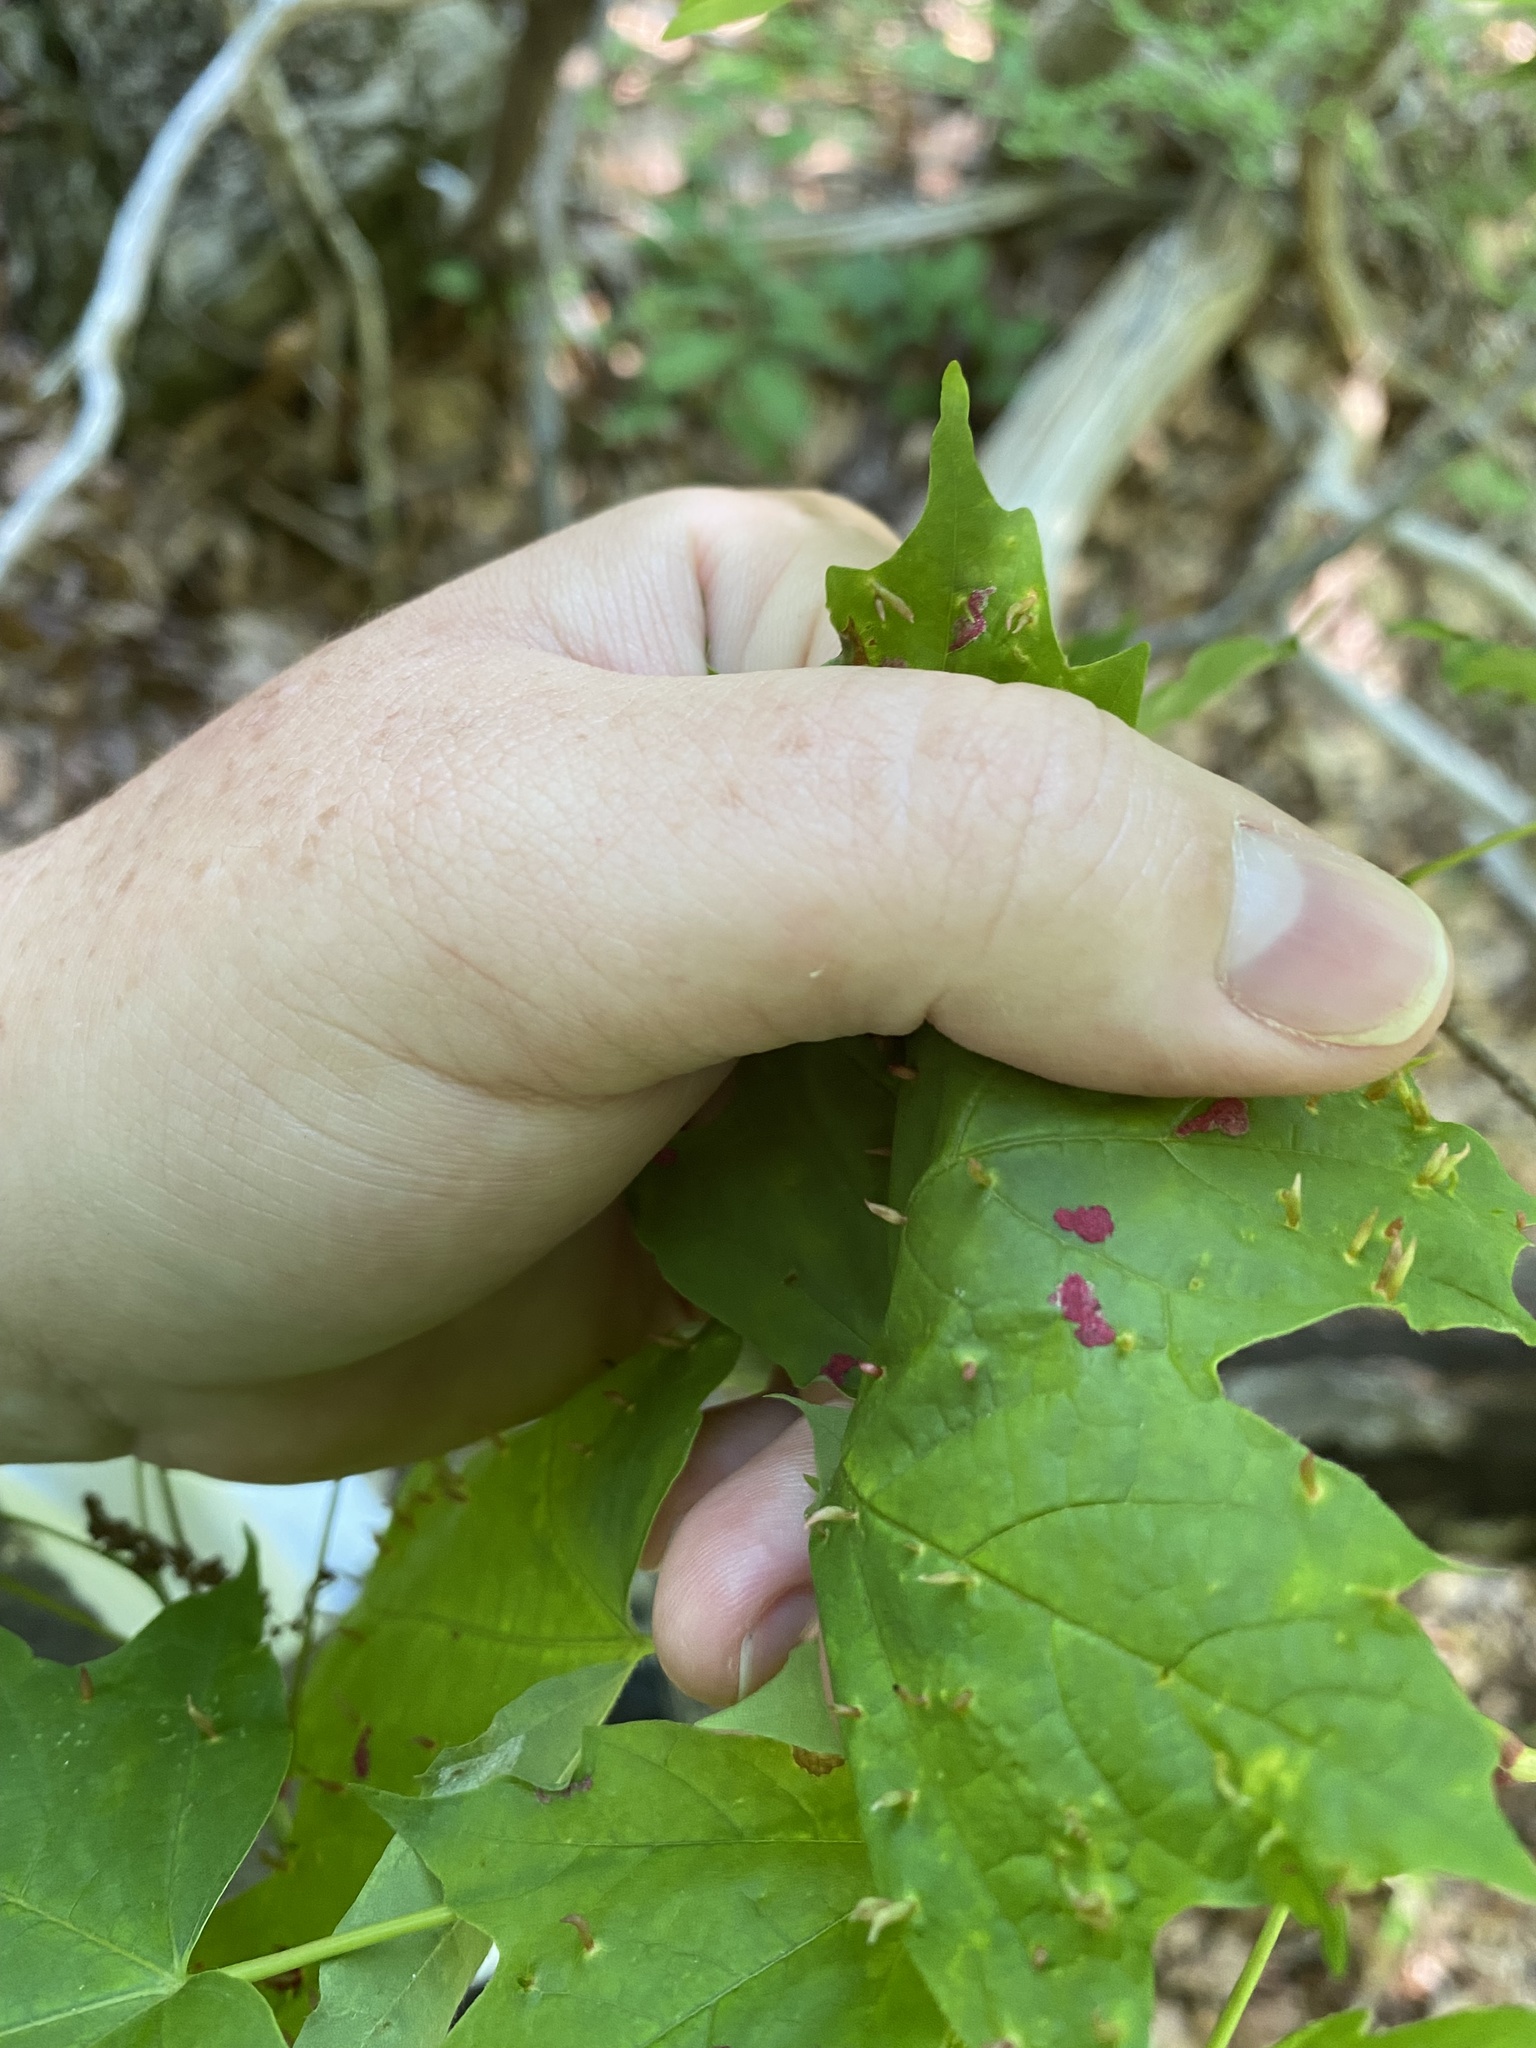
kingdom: Animalia
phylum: Arthropoda
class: Arachnida
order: Trombidiformes
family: Eriophyidae
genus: Aceria
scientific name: Aceria
